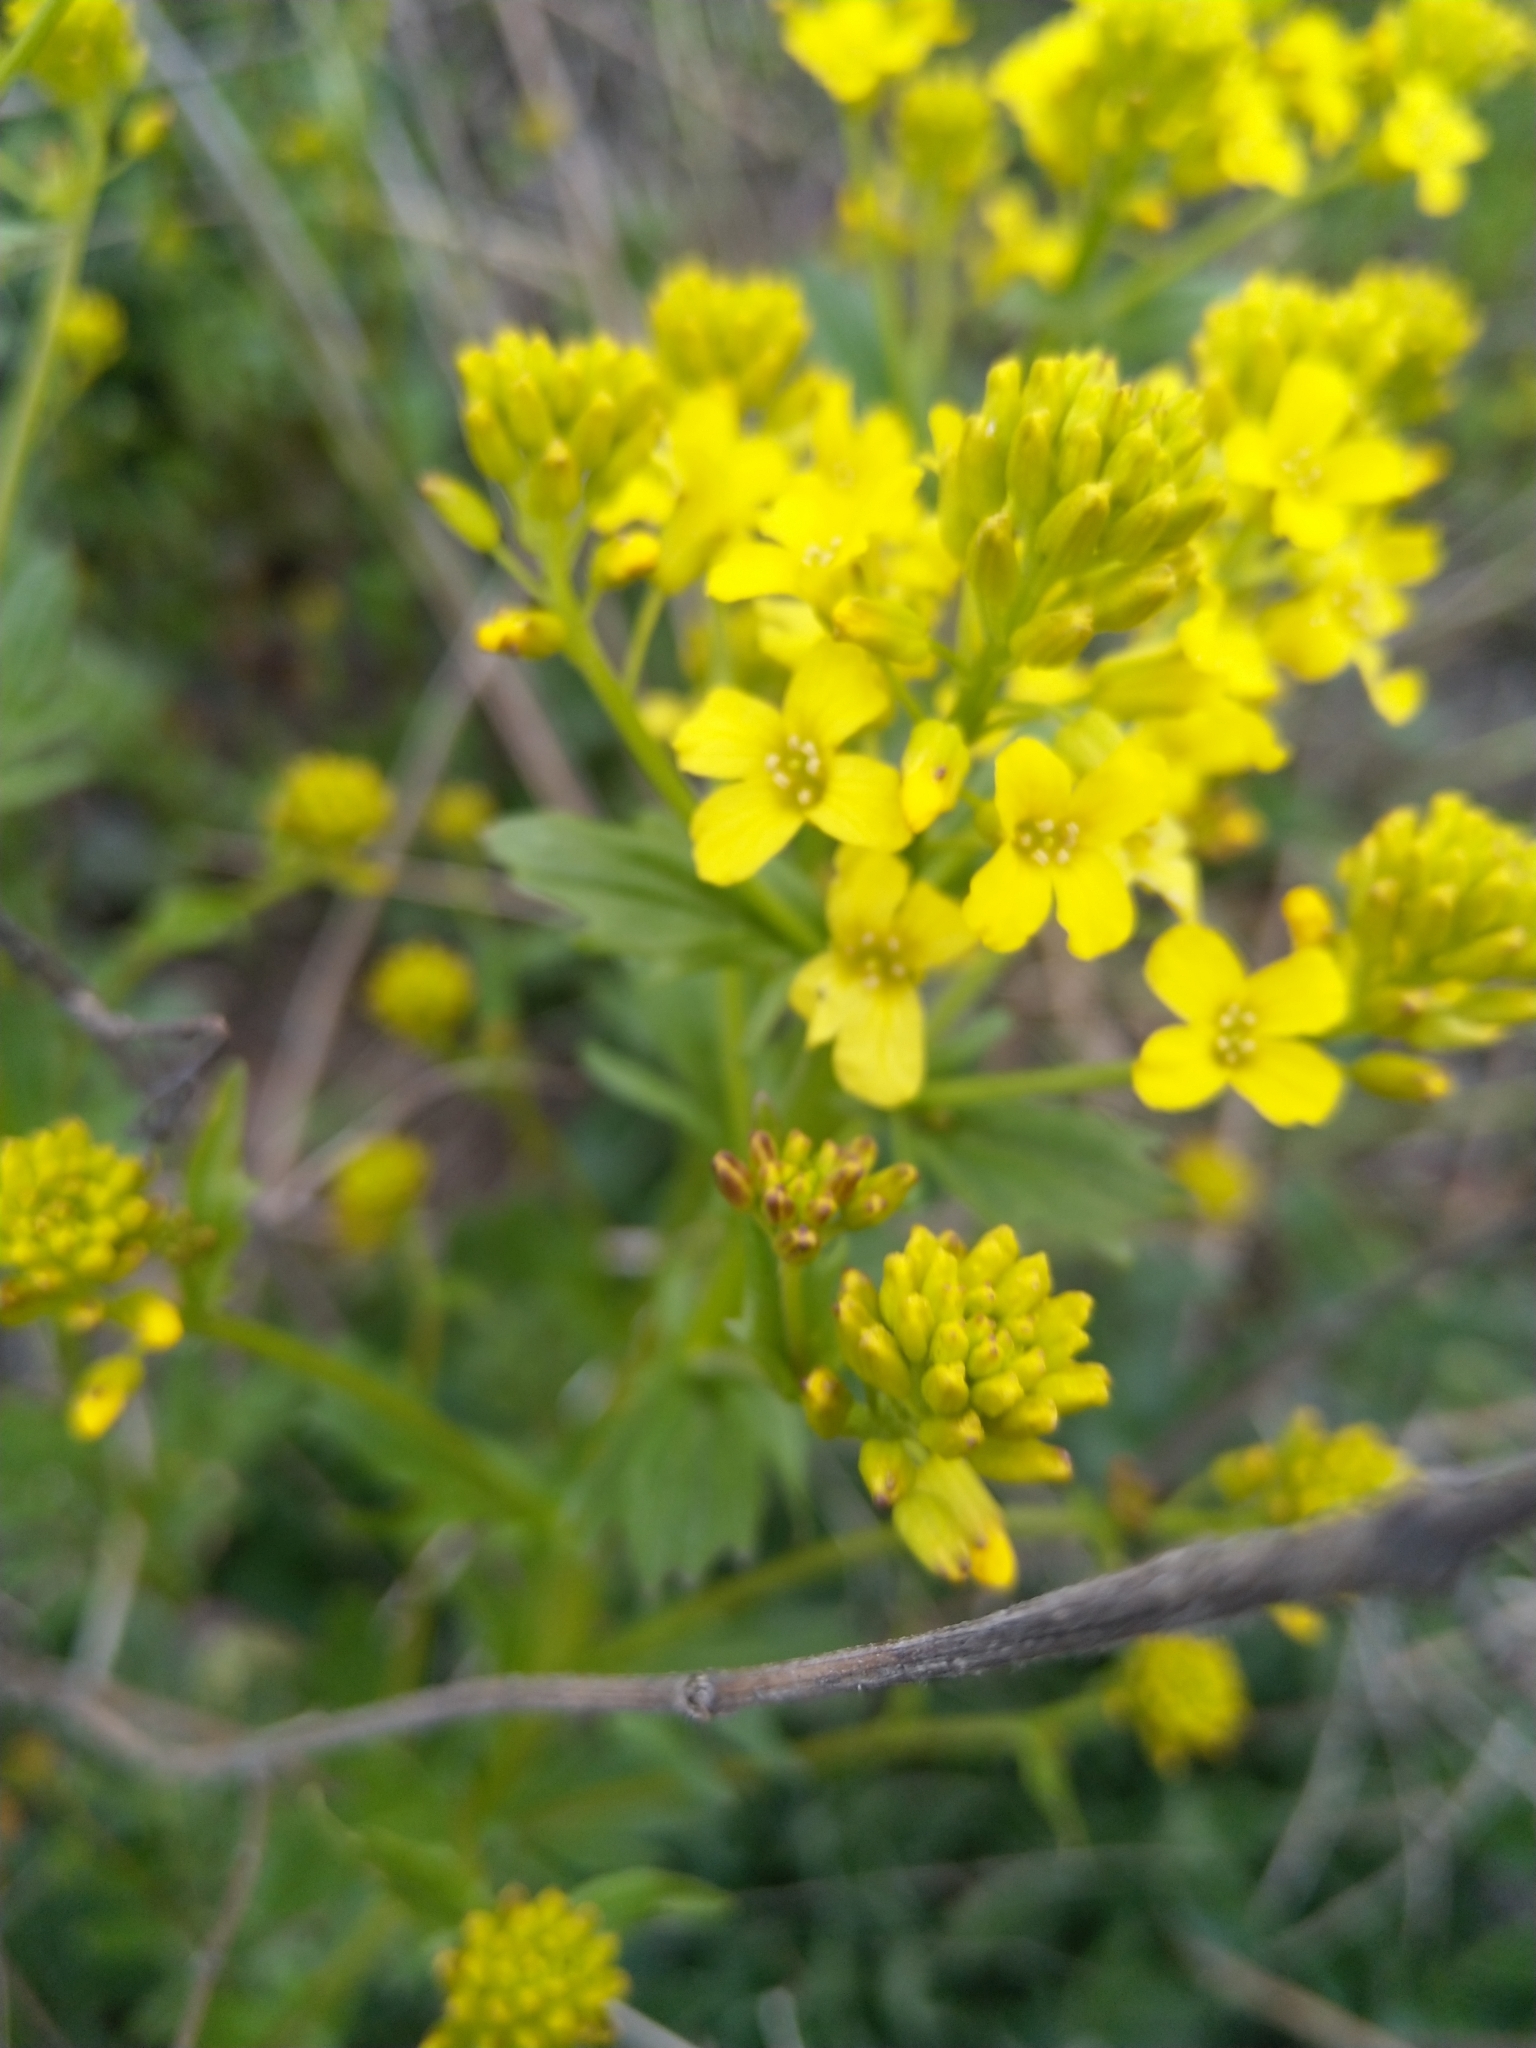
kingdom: Plantae
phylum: Tracheophyta
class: Magnoliopsida
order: Brassicales
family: Brassicaceae
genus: Barbarea
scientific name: Barbarea vulgaris
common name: Cressy-greens
